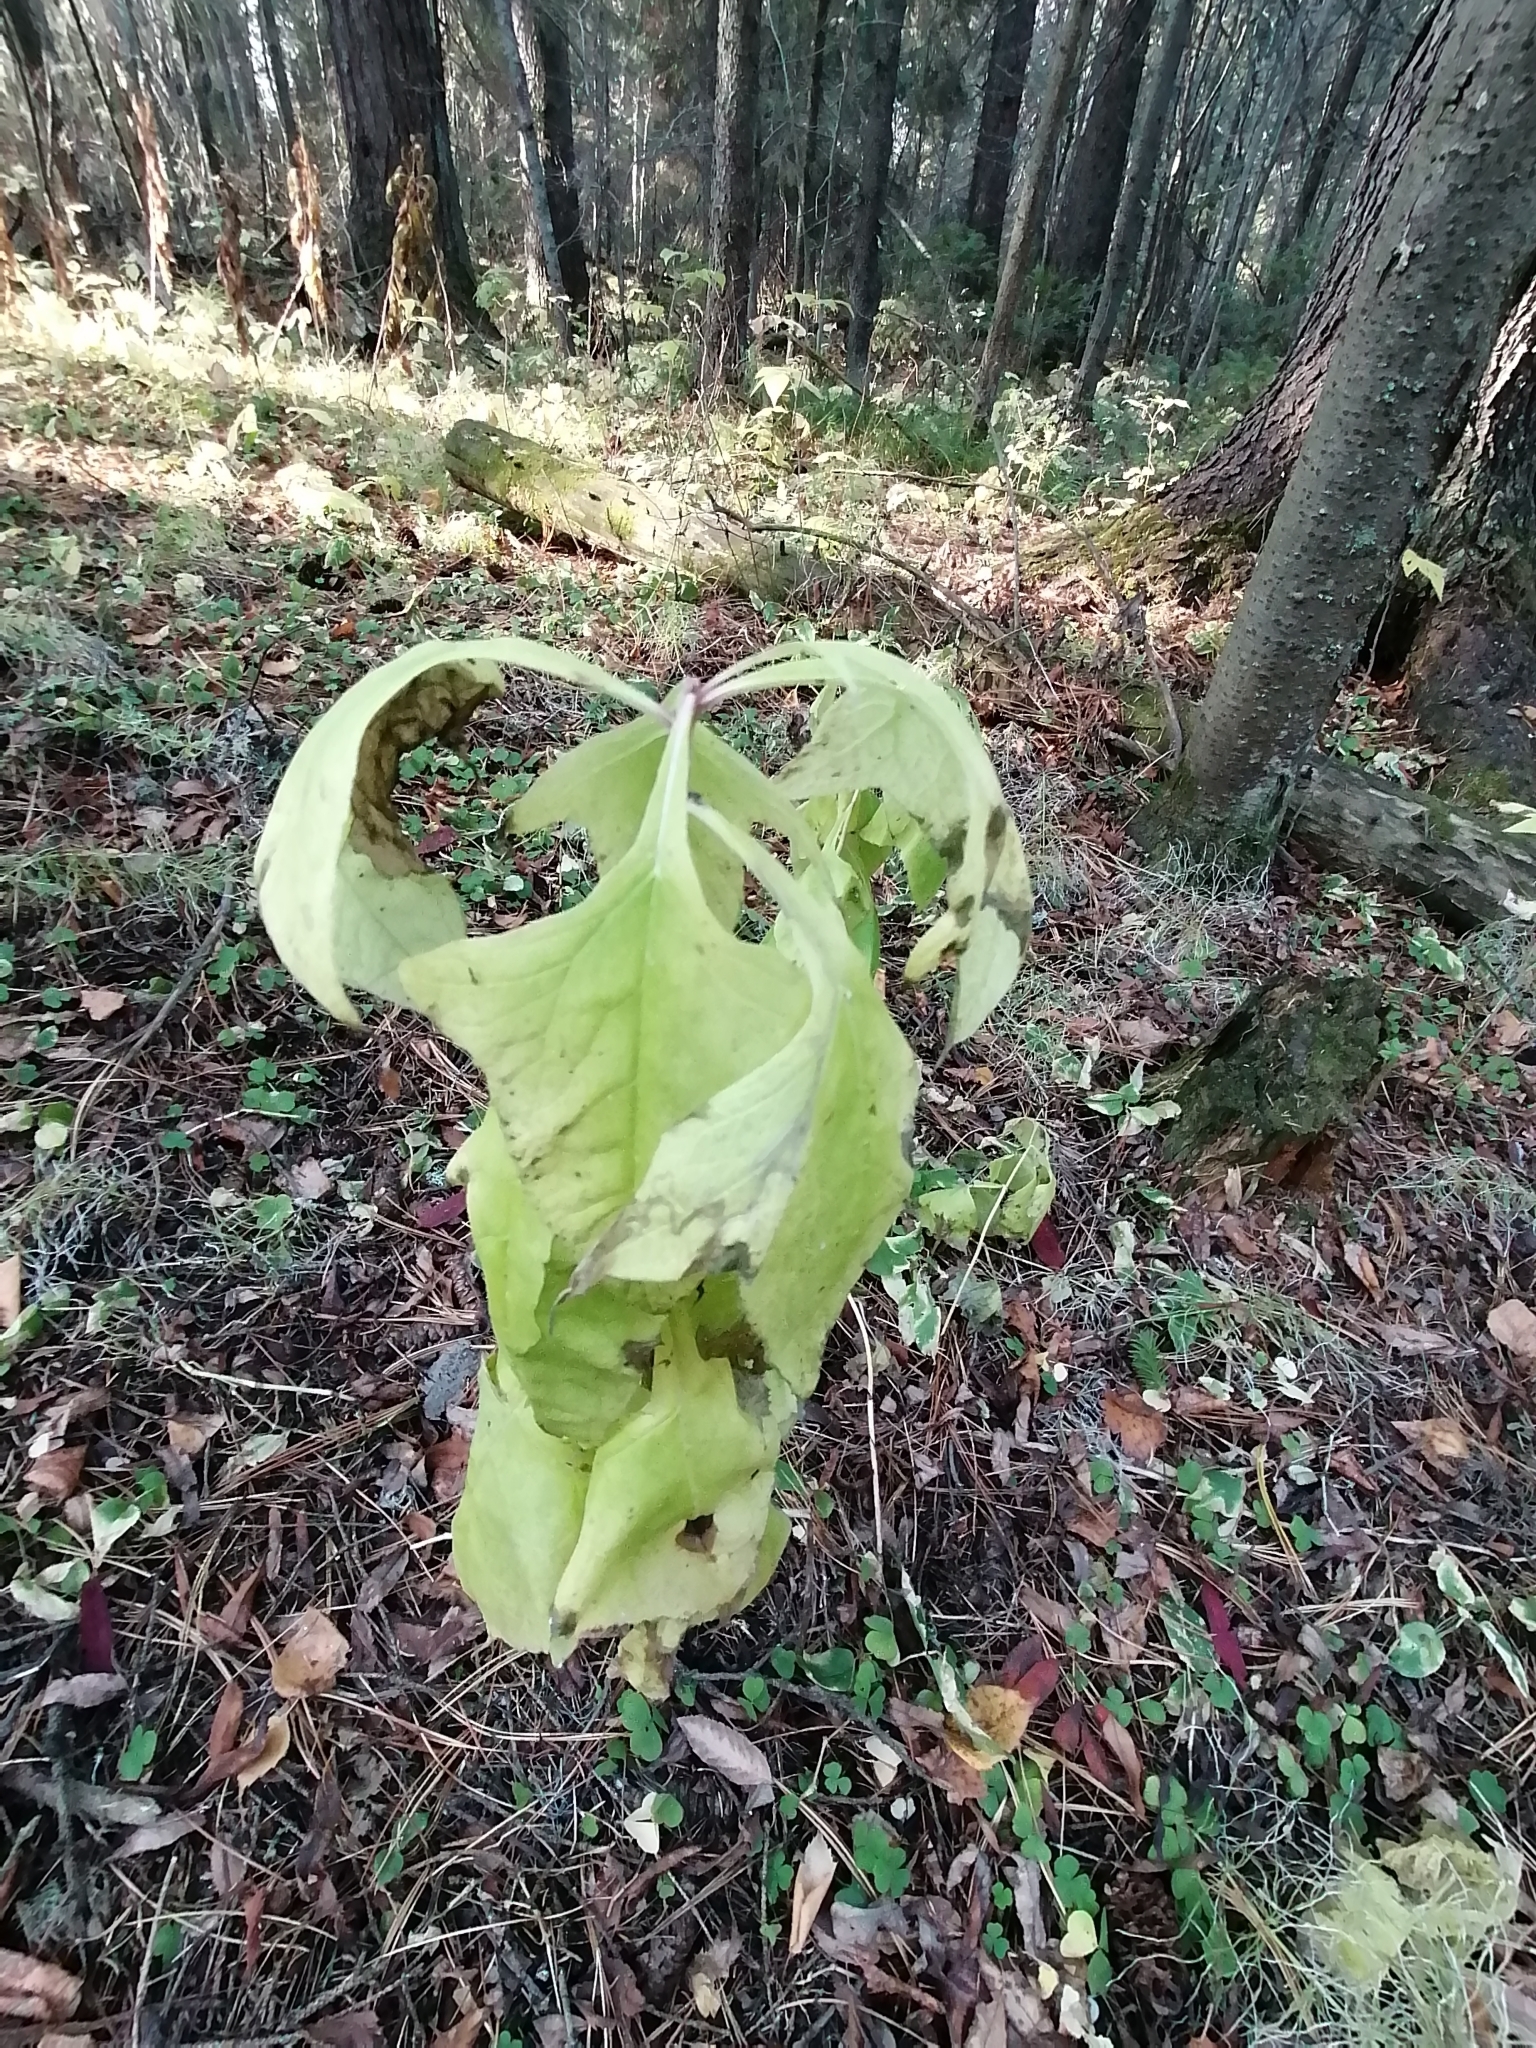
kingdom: Plantae
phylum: Tracheophyta
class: Magnoliopsida
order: Asterales
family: Asteraceae
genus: Parasenecio
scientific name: Parasenecio hastatus
